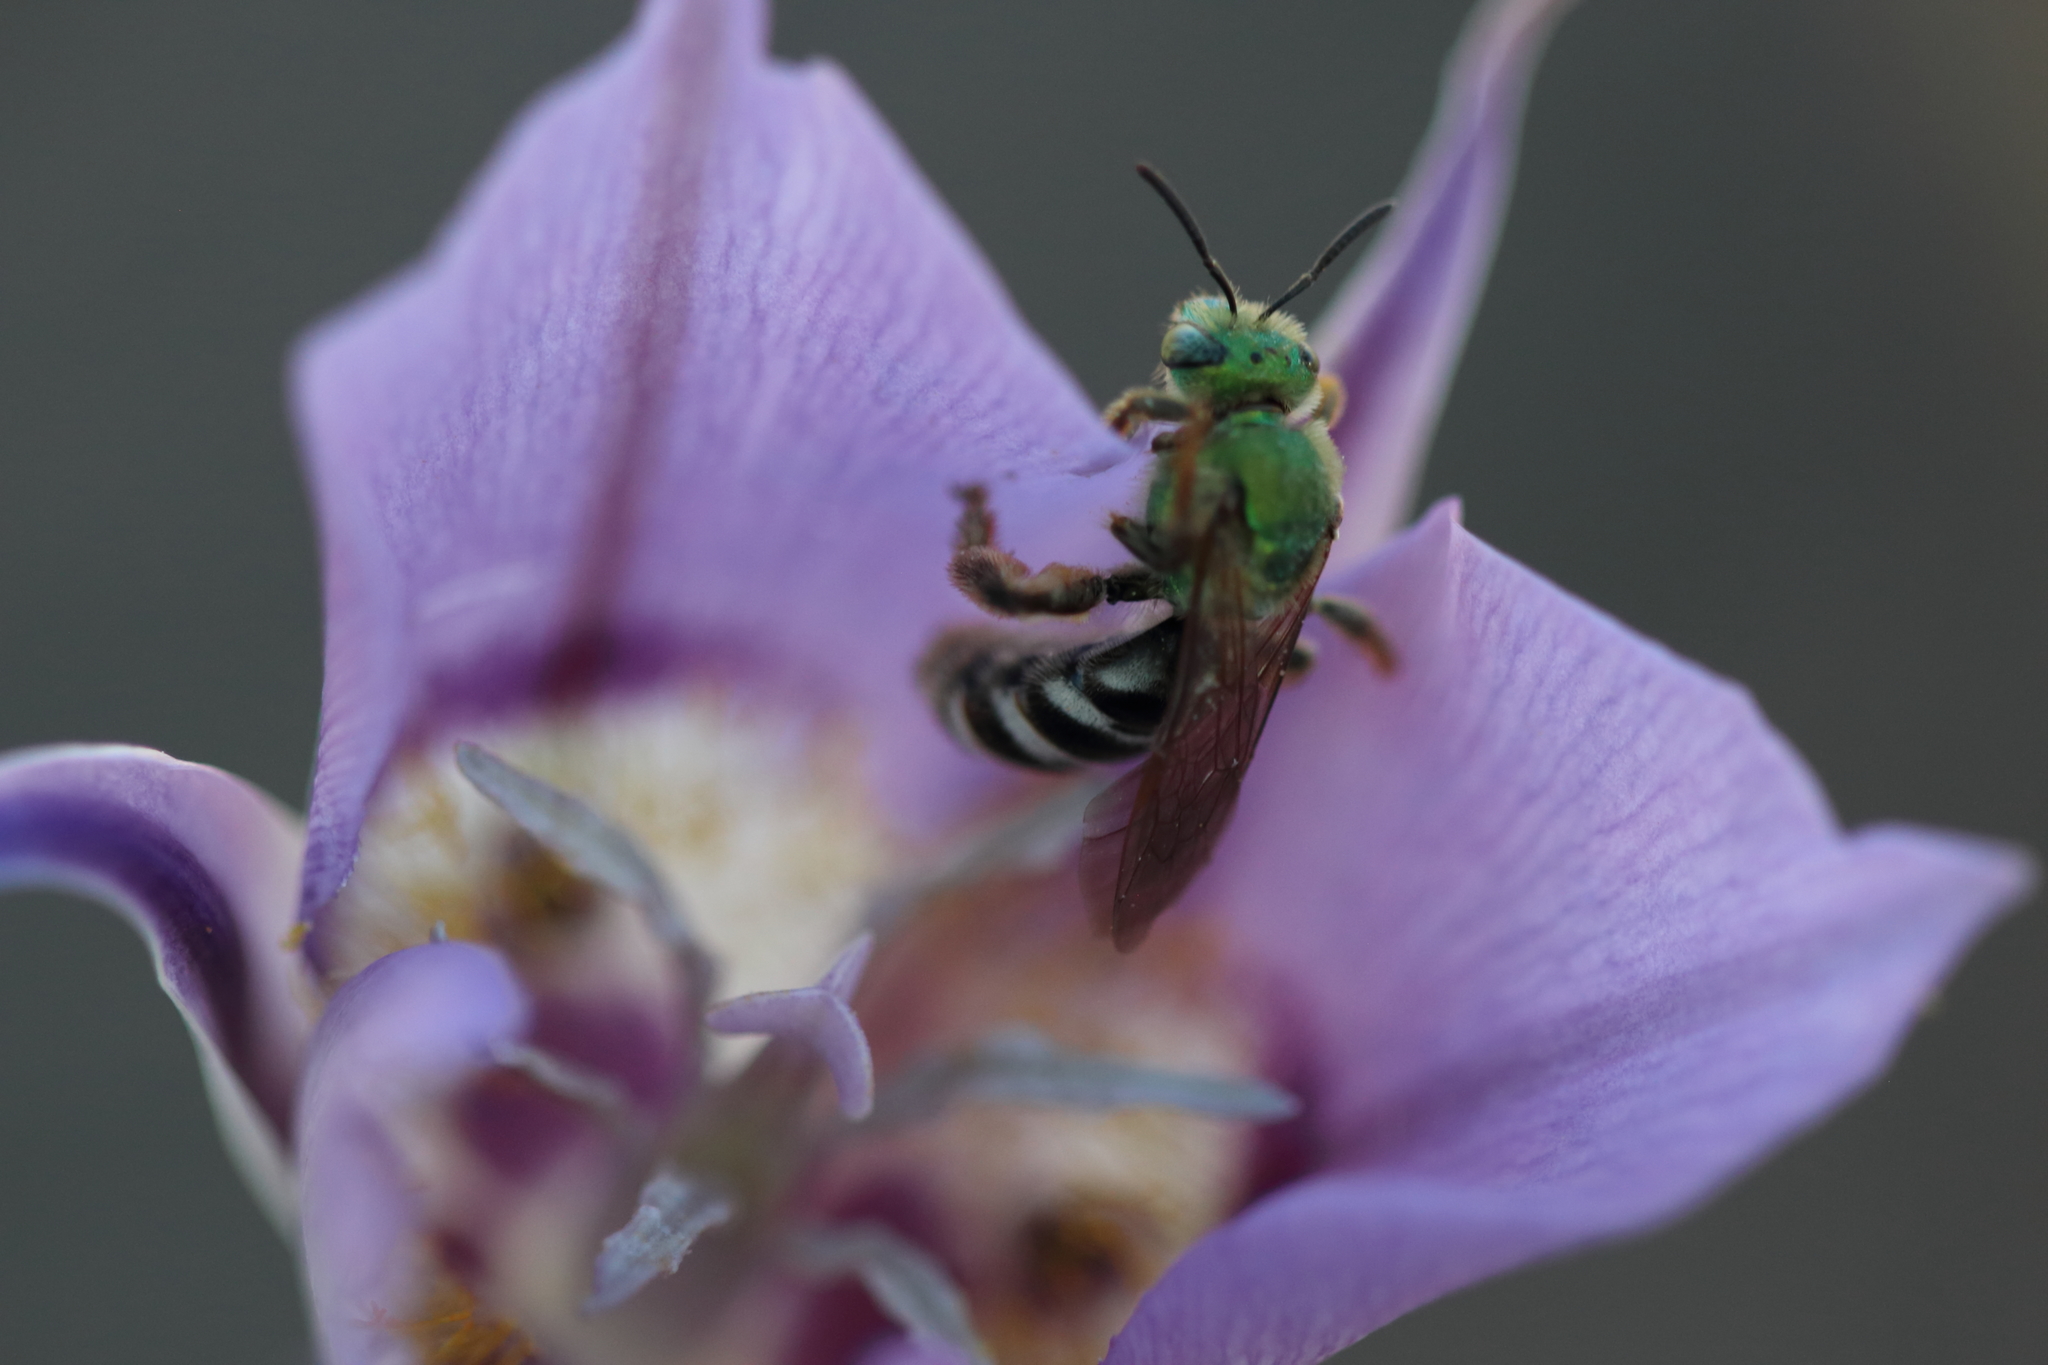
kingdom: Animalia
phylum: Arthropoda
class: Insecta
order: Hymenoptera
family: Halictidae
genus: Agapostemon
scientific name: Agapostemon virescens
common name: Bicolored striped sweat bee
